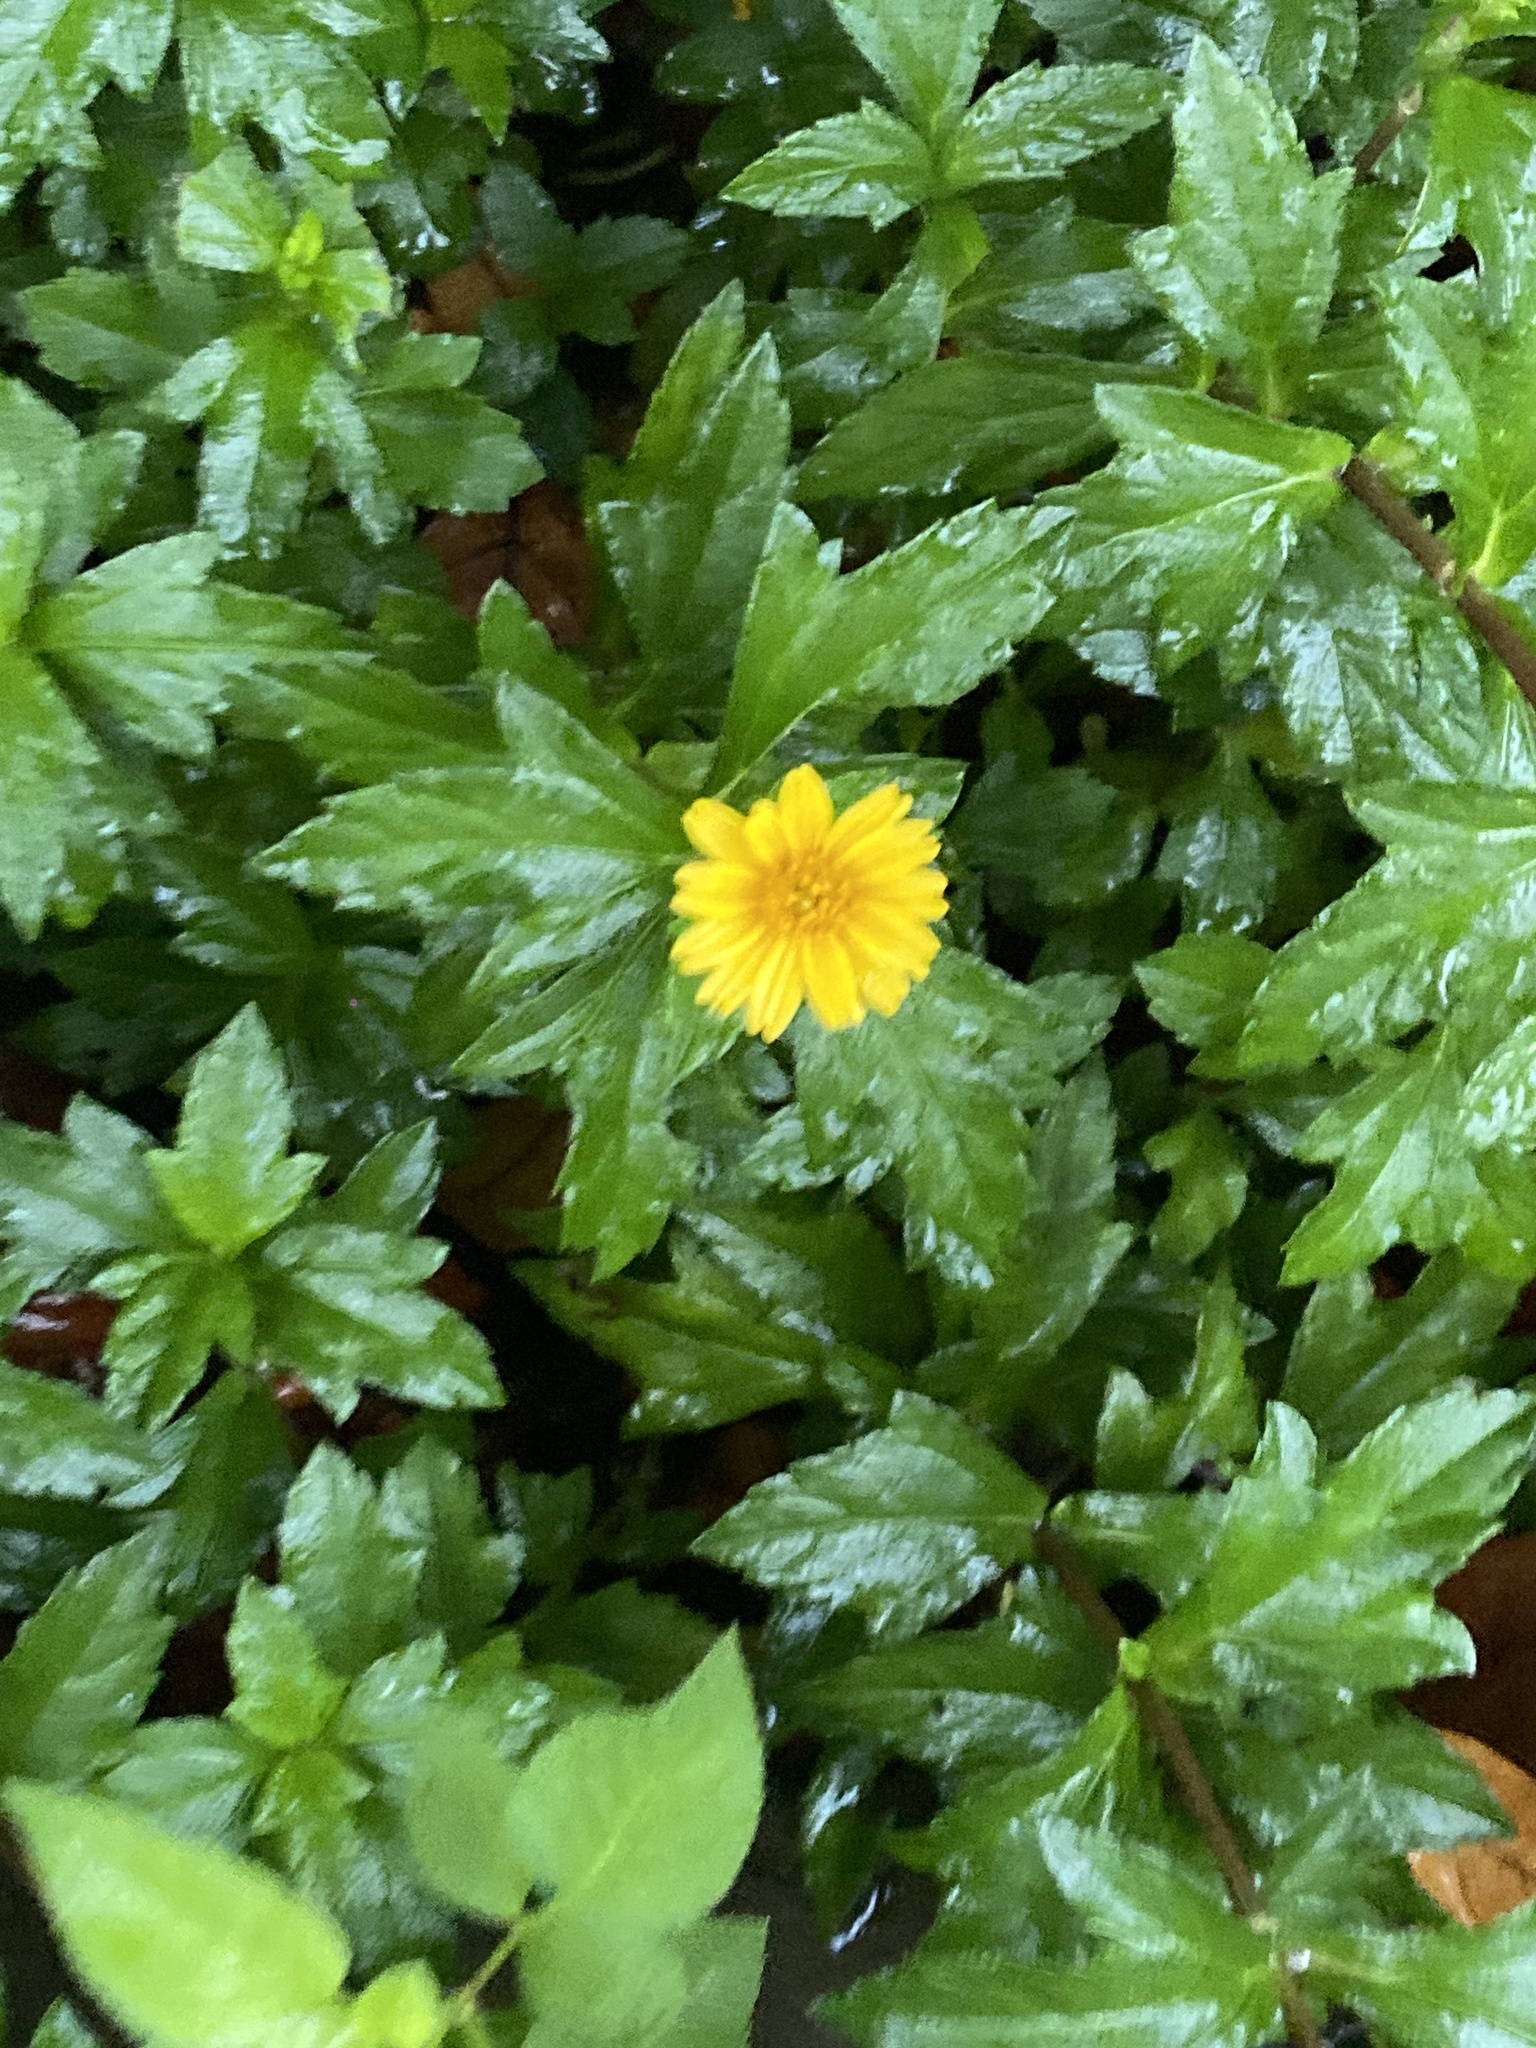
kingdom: Plantae
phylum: Tracheophyta
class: Magnoliopsida
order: Asterales
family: Asteraceae
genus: Sphagneticola
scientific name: Sphagneticola trilobata
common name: Bay biscayne creeping-oxeye
